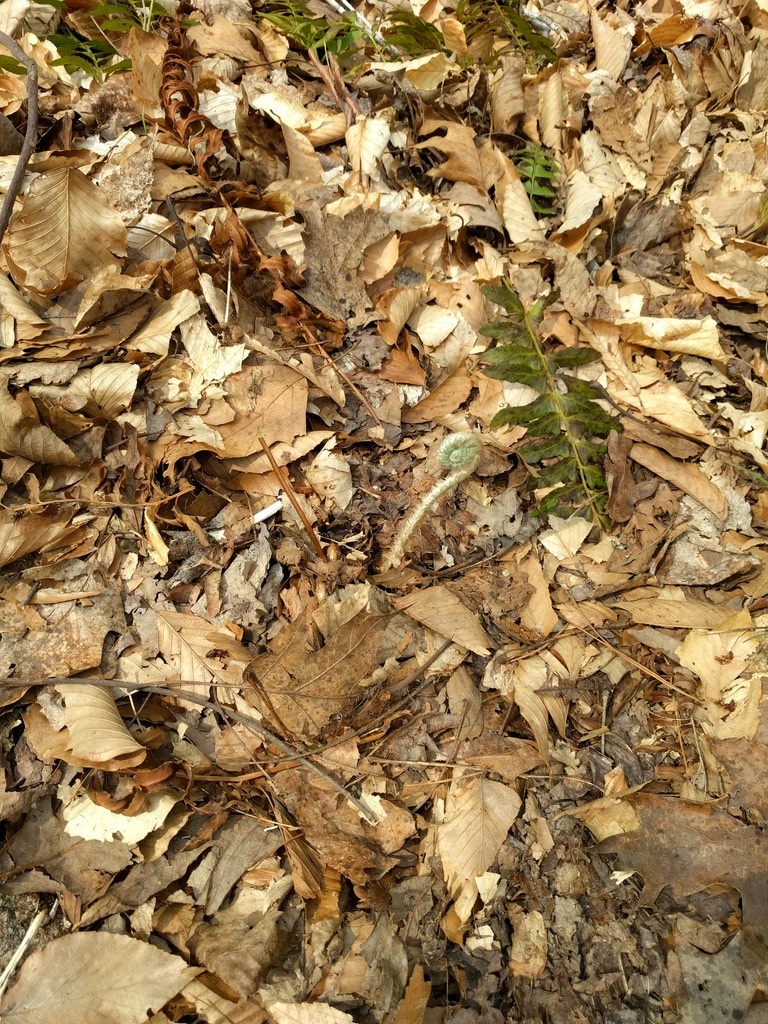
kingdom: Plantae
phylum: Tracheophyta
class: Polypodiopsida
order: Polypodiales
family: Dryopteridaceae
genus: Polystichum
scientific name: Polystichum acrostichoides
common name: Christmas fern
